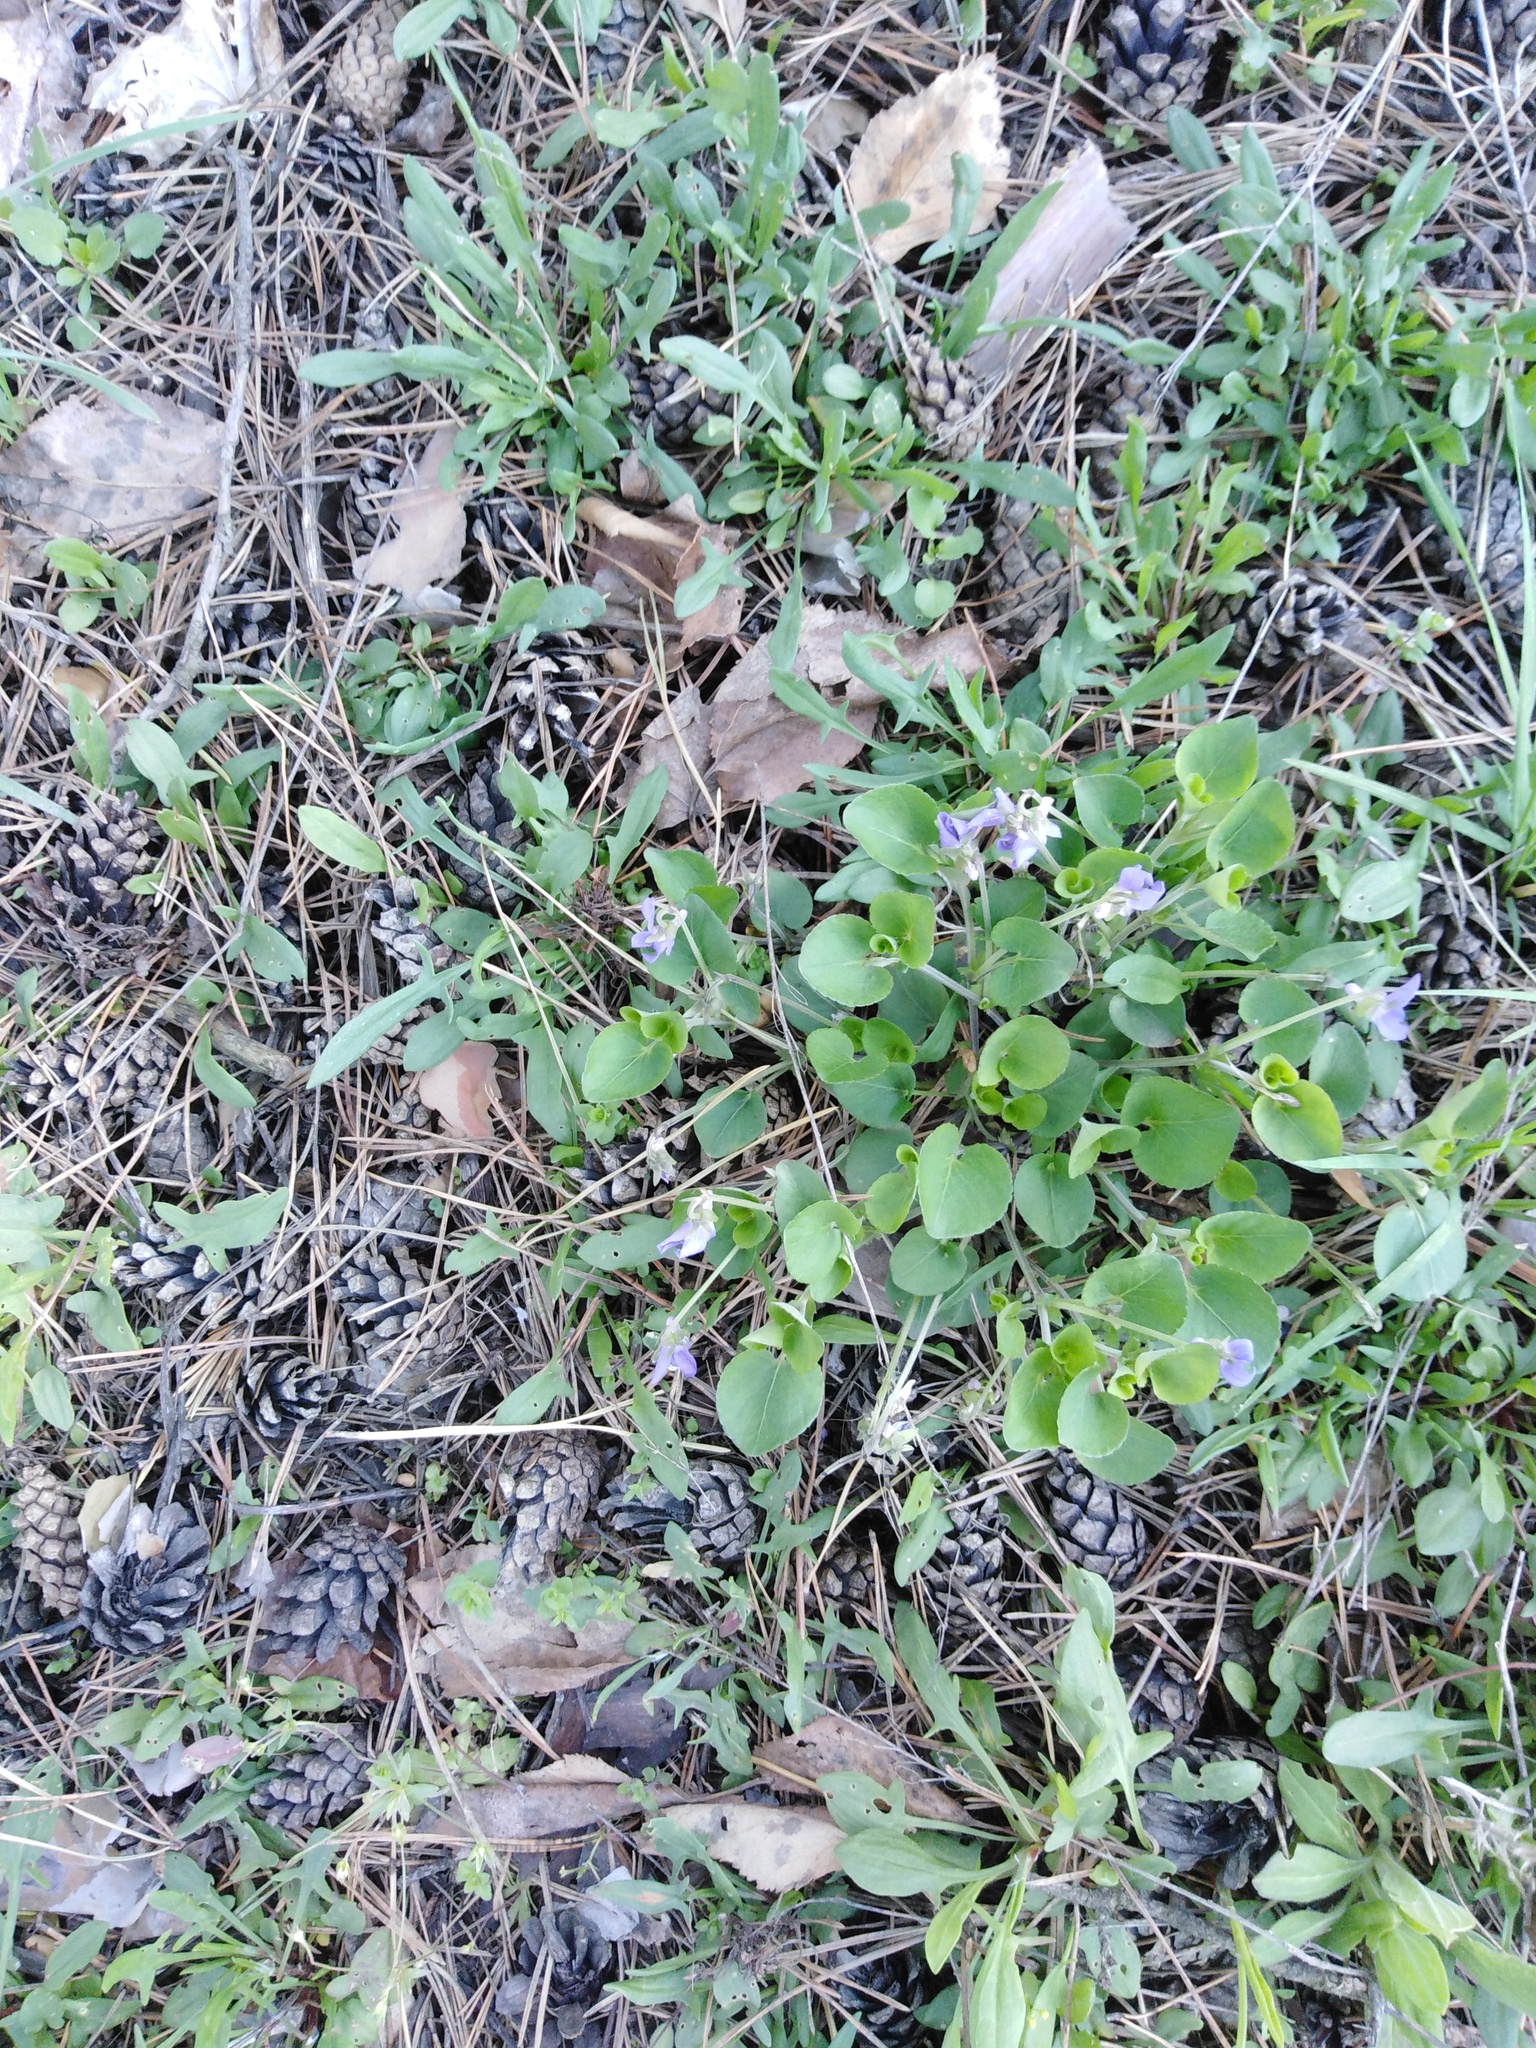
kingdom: Plantae
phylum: Tracheophyta
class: Magnoliopsida
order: Malpighiales
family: Violaceae
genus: Viola
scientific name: Viola rupestris
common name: Teesdale violet
